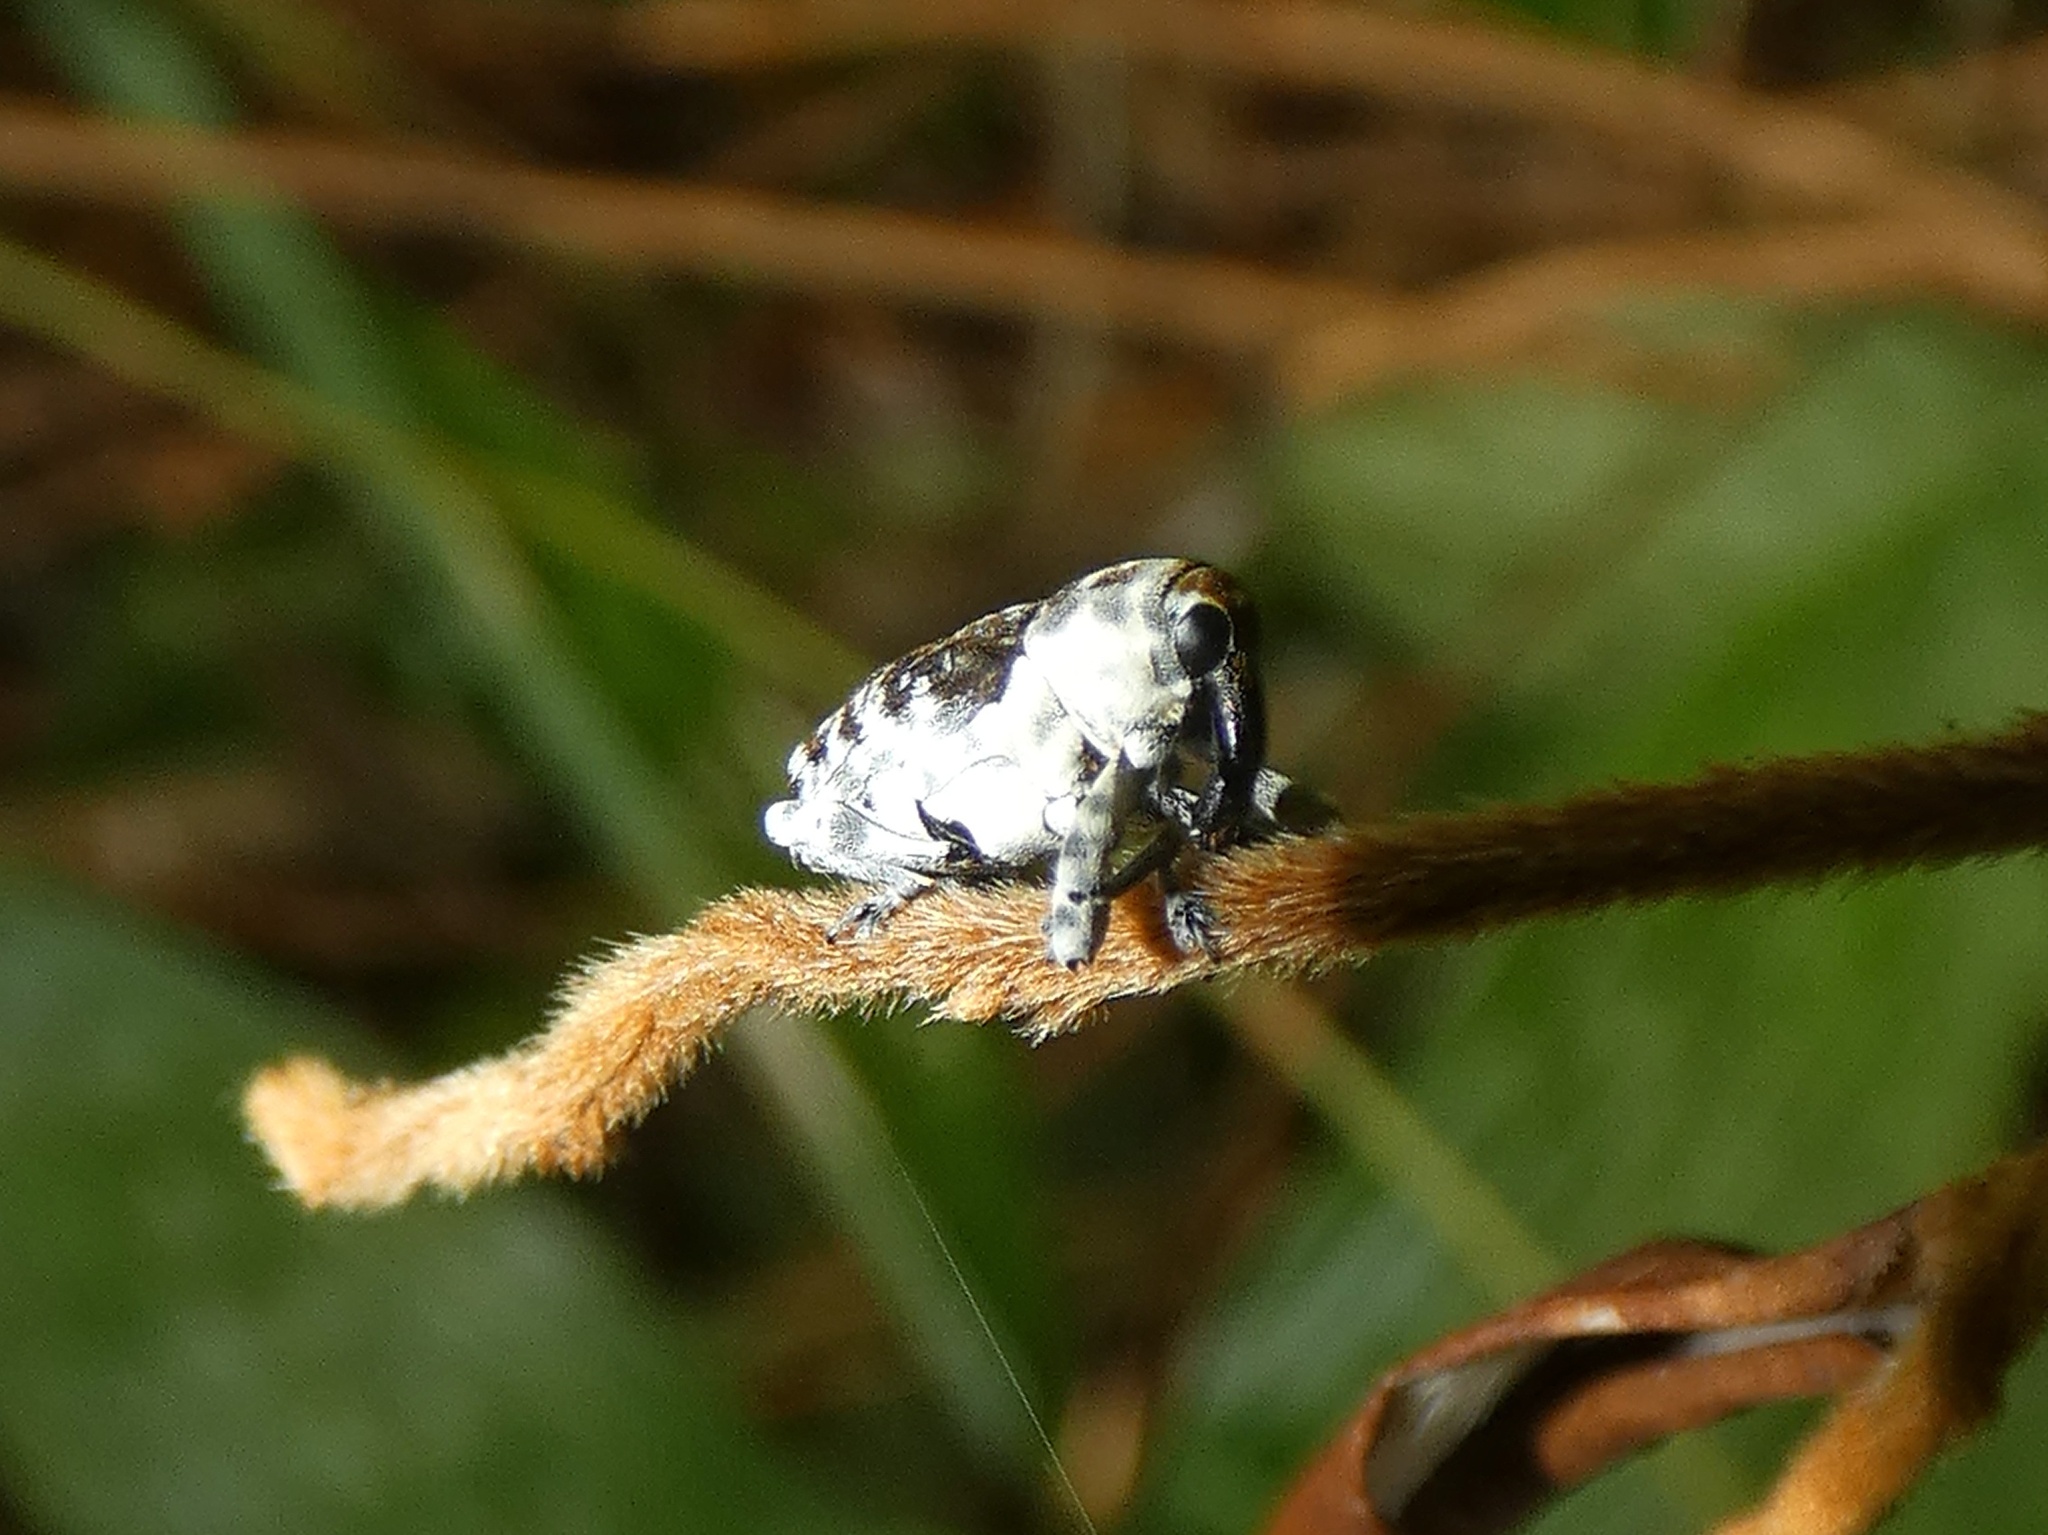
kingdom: Animalia
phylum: Arthropoda
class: Insecta
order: Coleoptera
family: Curculionidae
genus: Peridinetus
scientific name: Peridinetus irroratus
